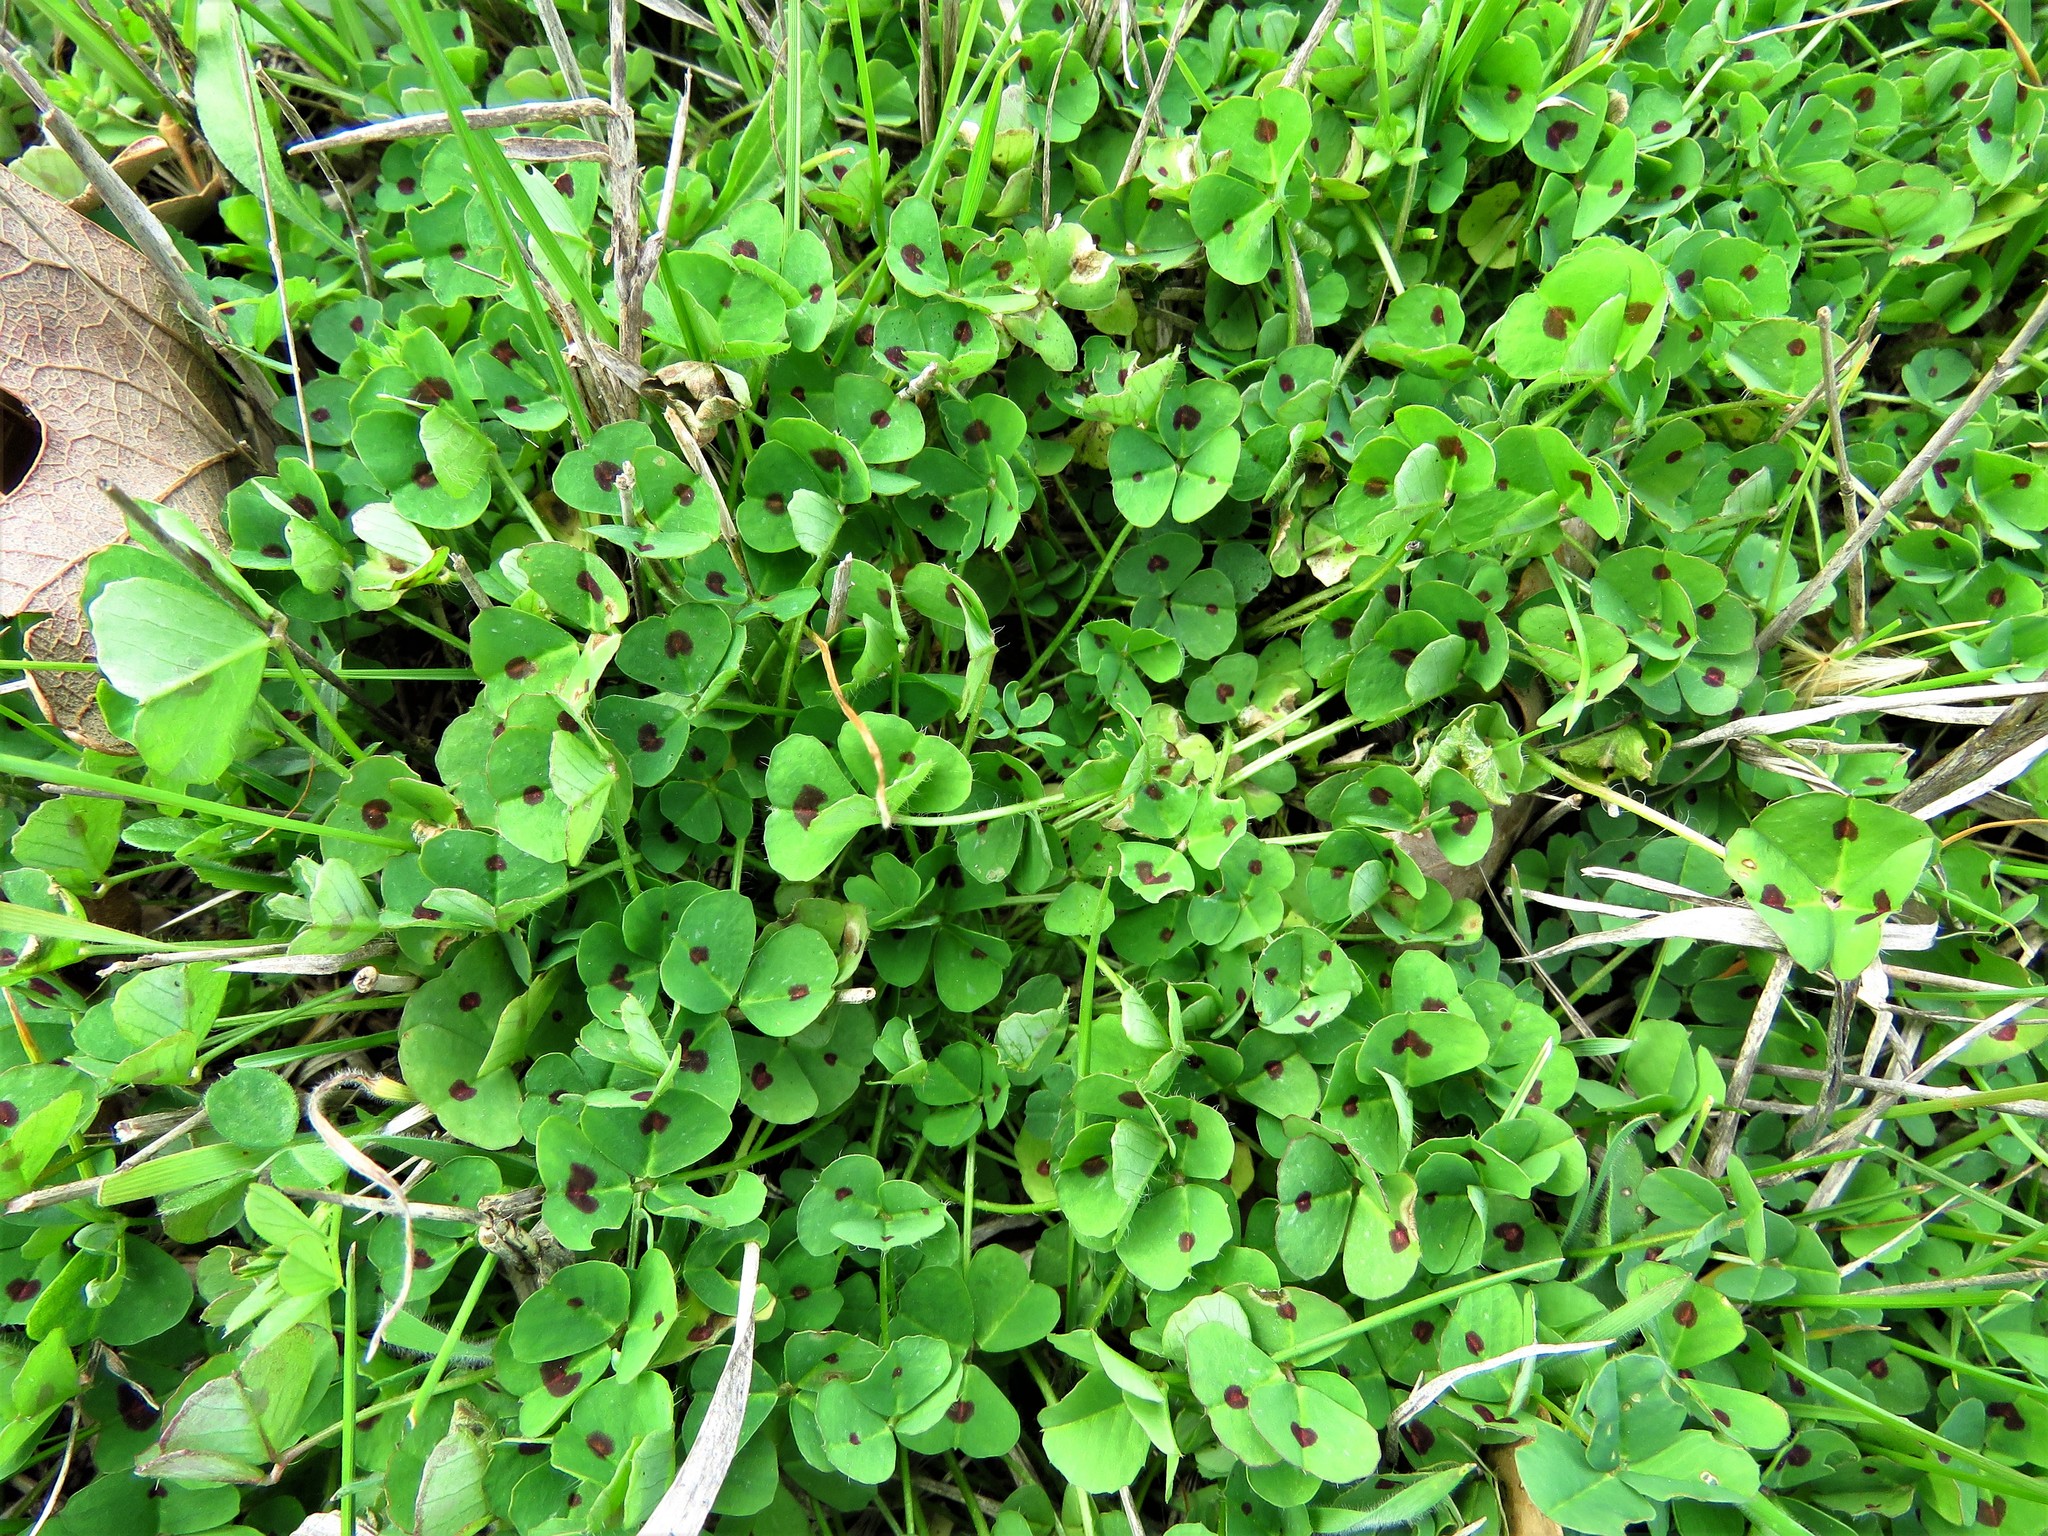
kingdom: Plantae
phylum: Tracheophyta
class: Magnoliopsida
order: Fabales
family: Fabaceae
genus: Medicago
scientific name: Medicago arabica
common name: Spotted medick
